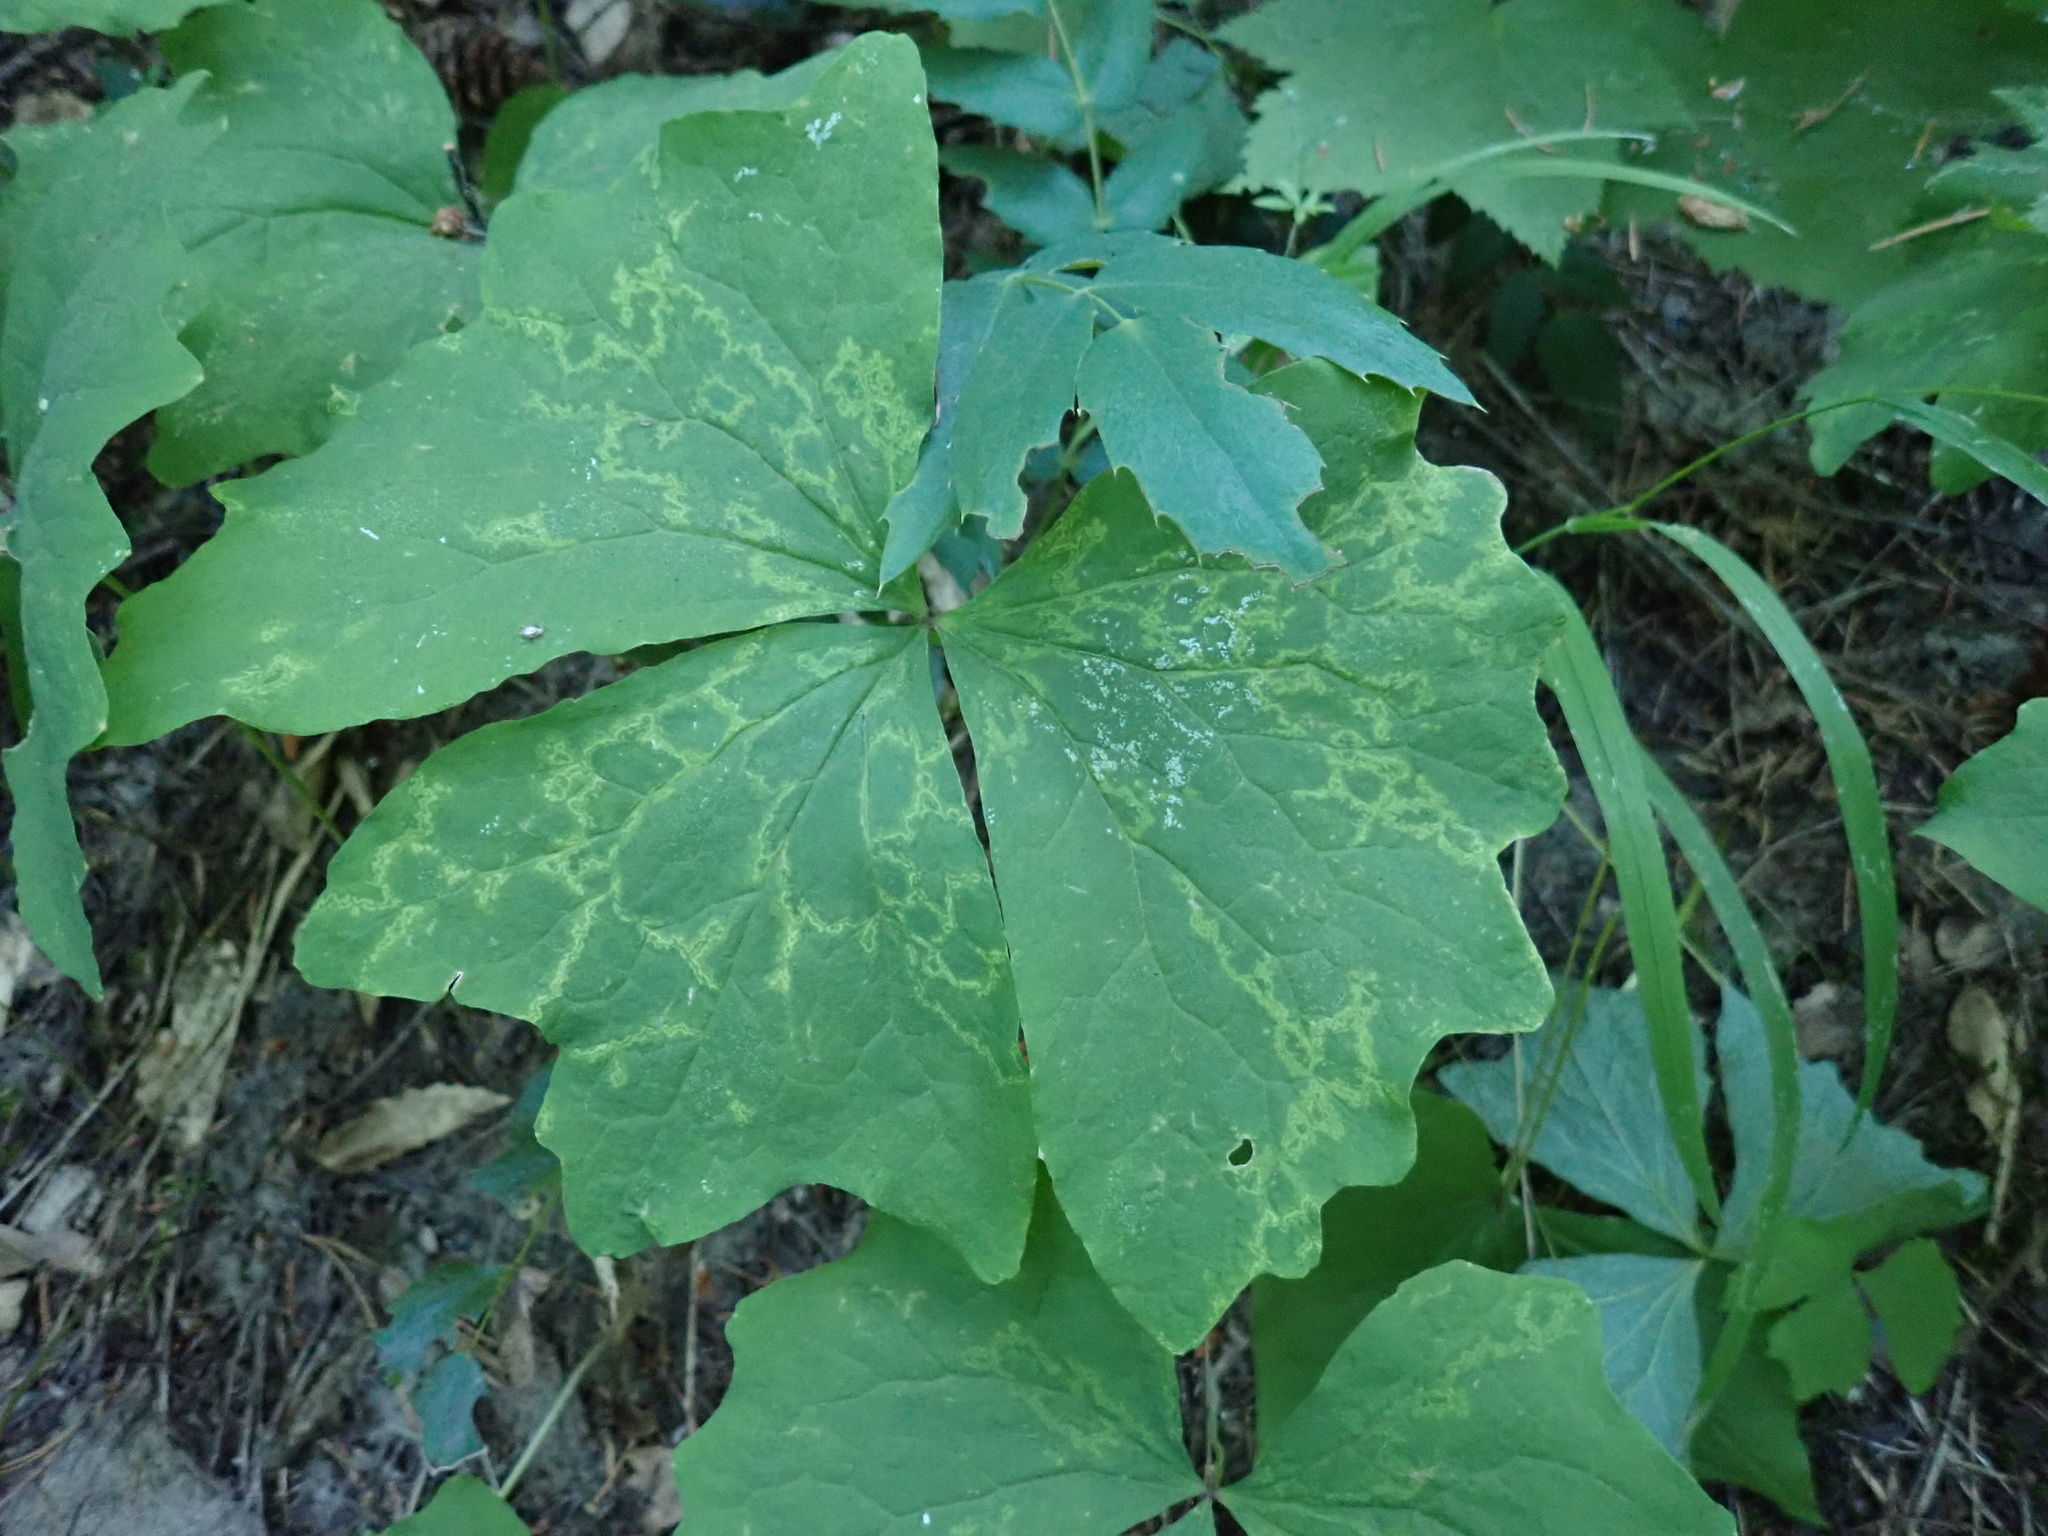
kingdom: Plantae
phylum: Tracheophyta
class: Magnoliopsida
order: Ranunculales
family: Berberidaceae
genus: Achlys
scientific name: Achlys triphylla
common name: Vanilla-leaf
